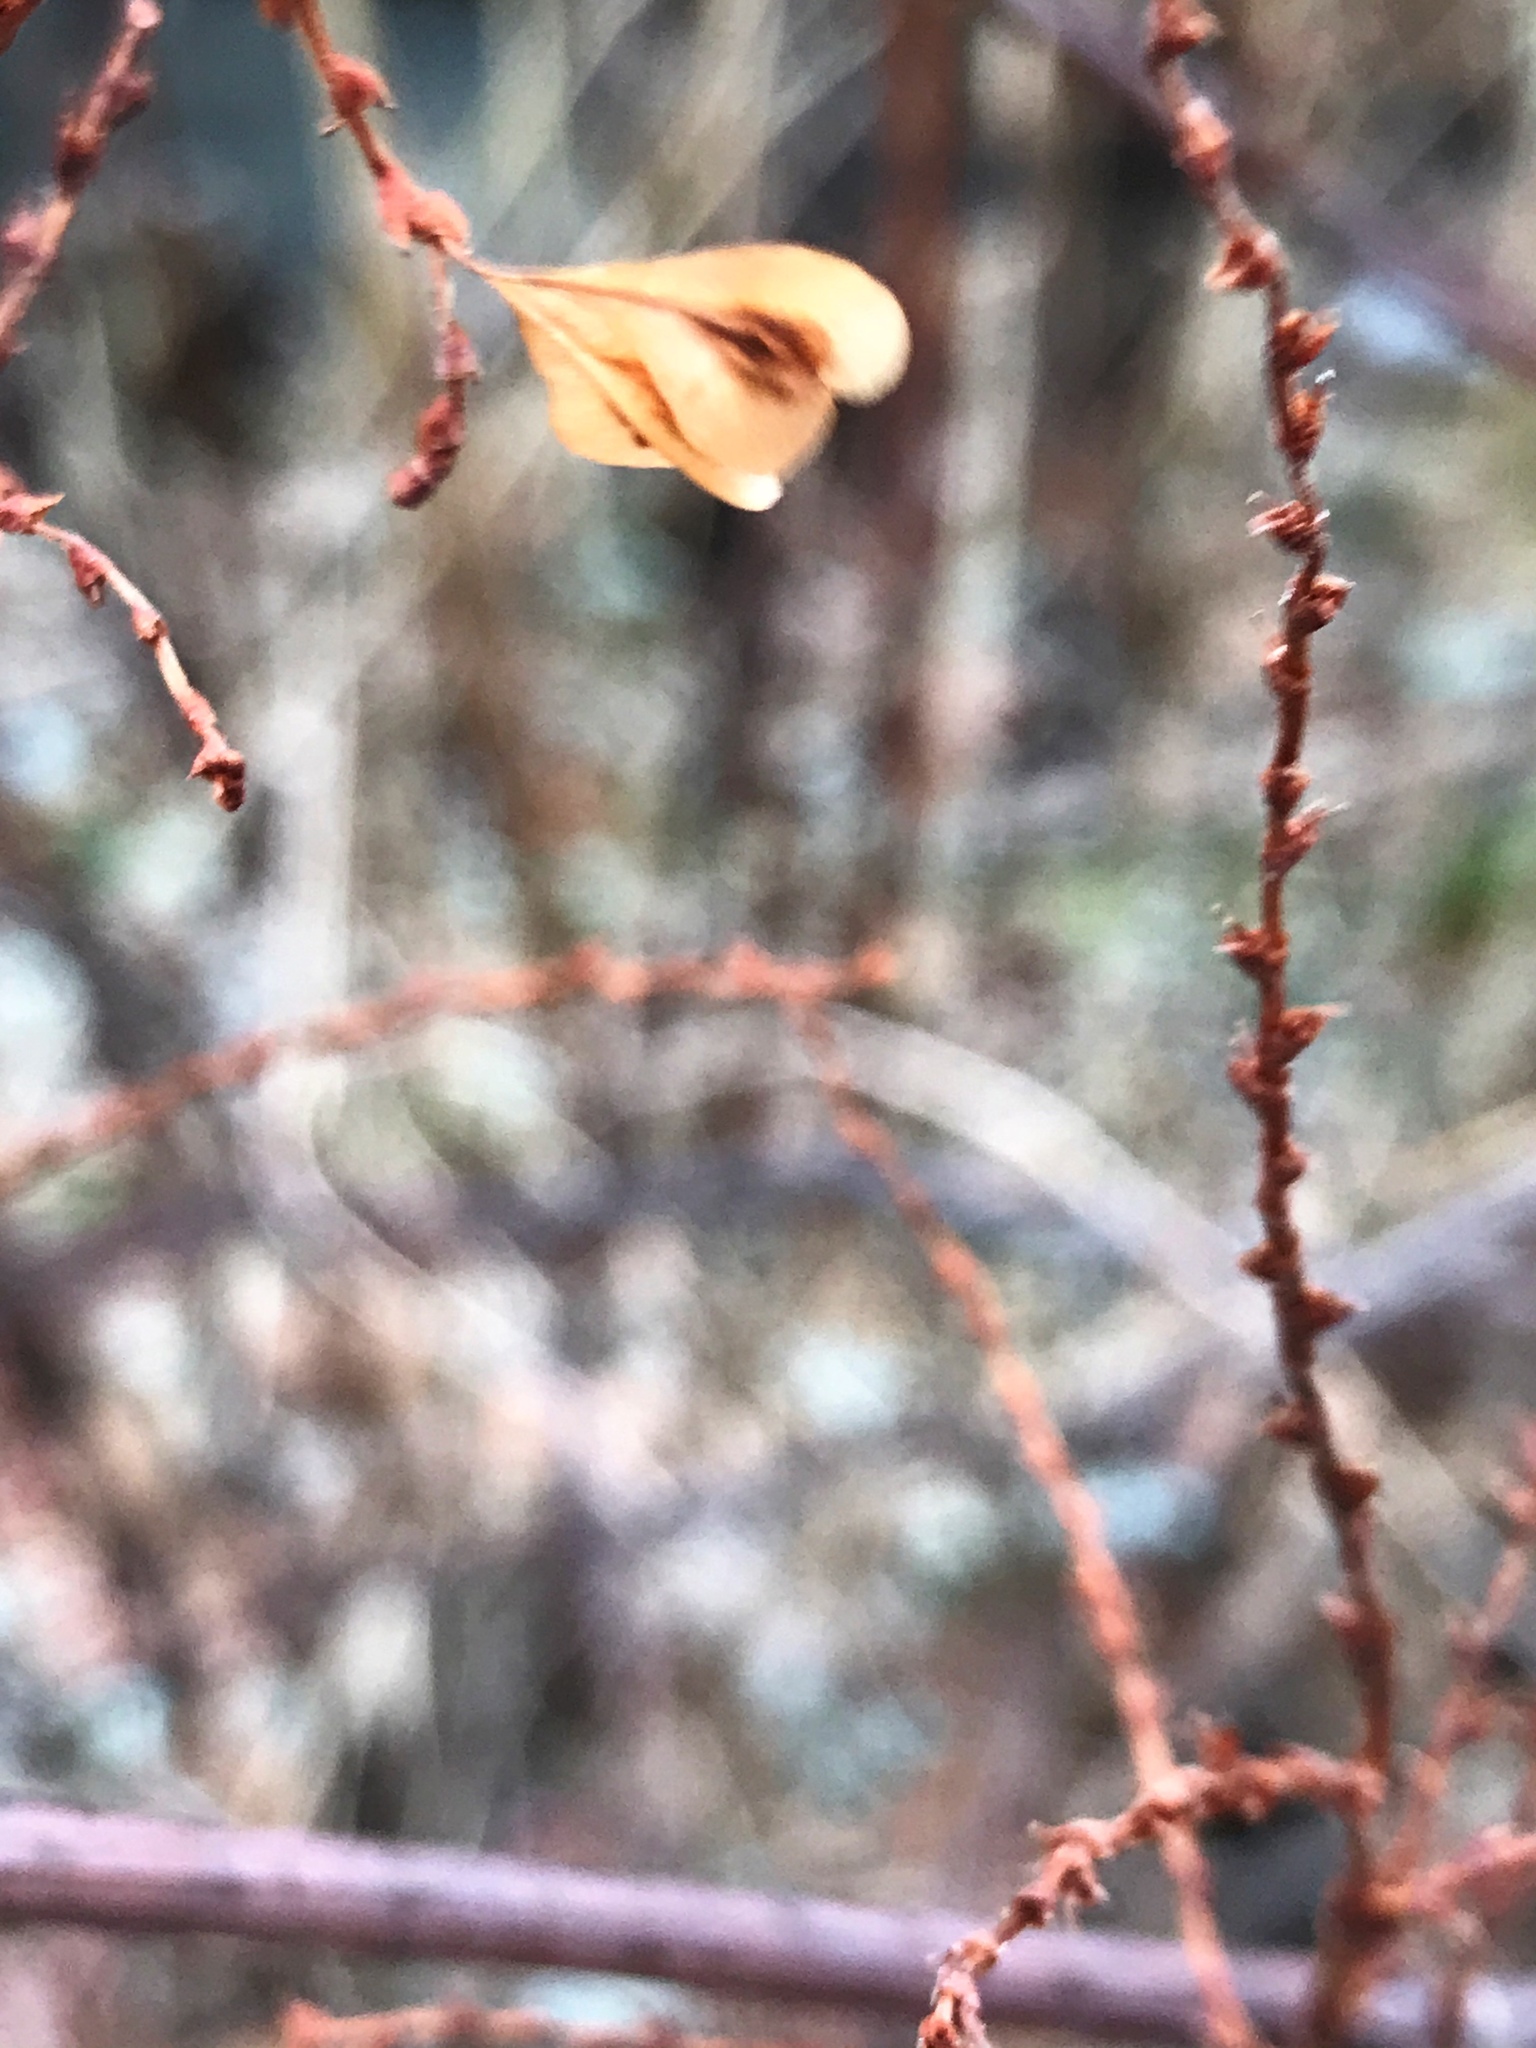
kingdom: Plantae
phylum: Tracheophyta
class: Magnoliopsida
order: Caryophyllales
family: Polygonaceae
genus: Reynoutria
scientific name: Reynoutria japonica
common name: Japanese knotweed
